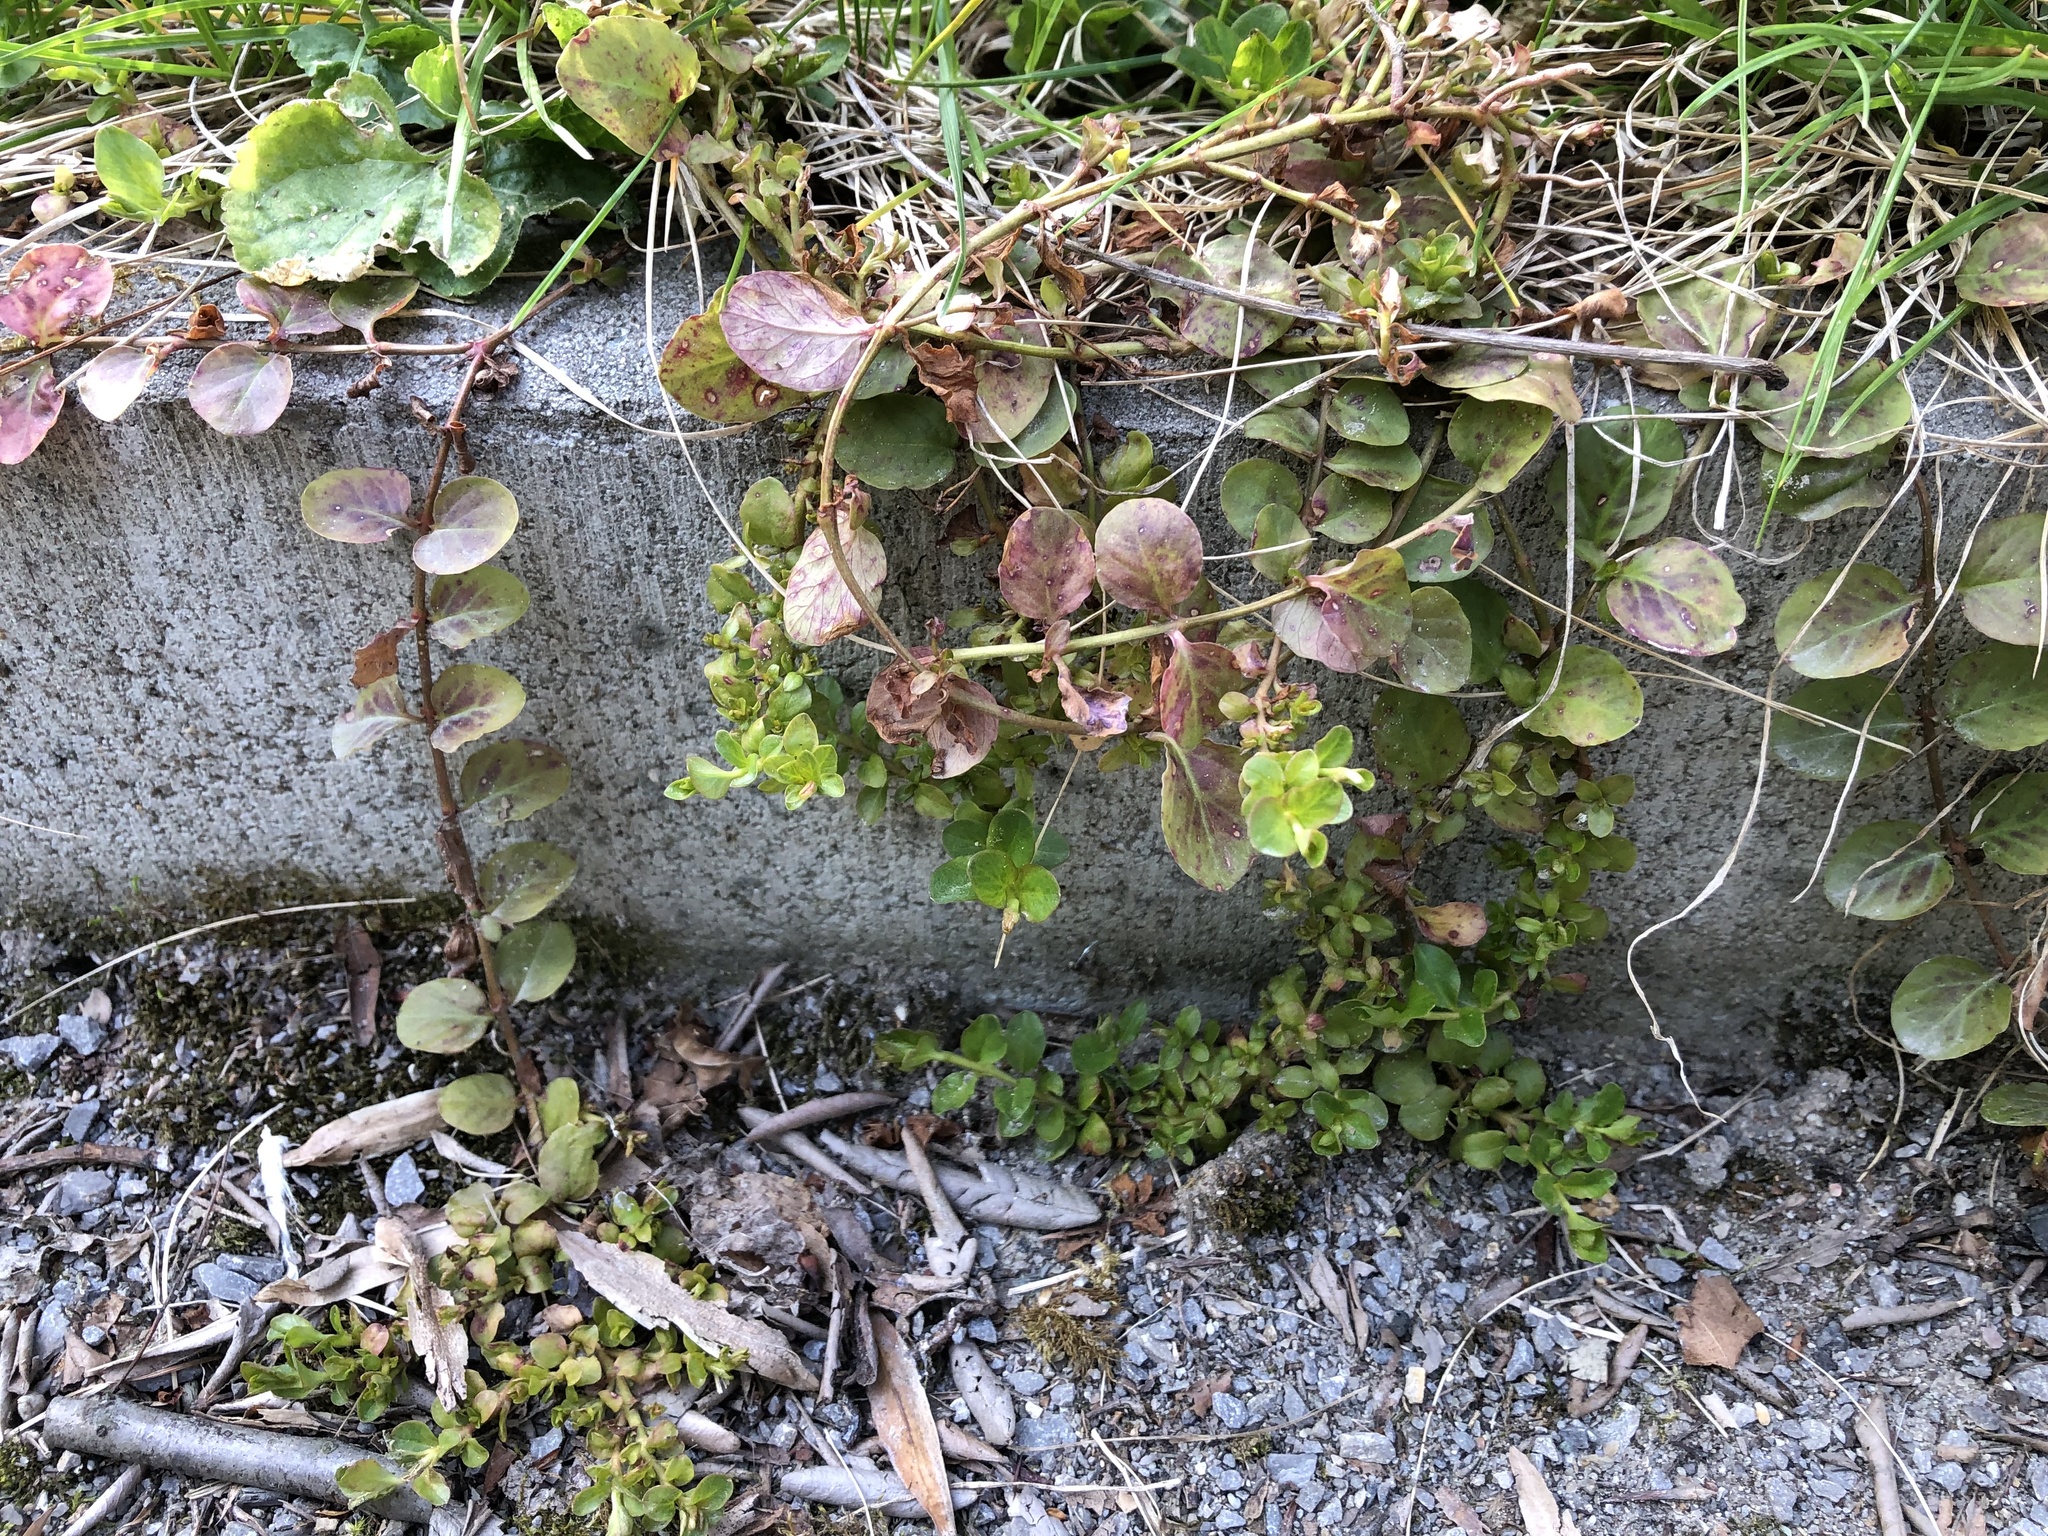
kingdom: Plantae
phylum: Tracheophyta
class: Magnoliopsida
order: Ericales
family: Primulaceae
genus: Lysimachia
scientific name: Lysimachia nummularia
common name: Moneywort
